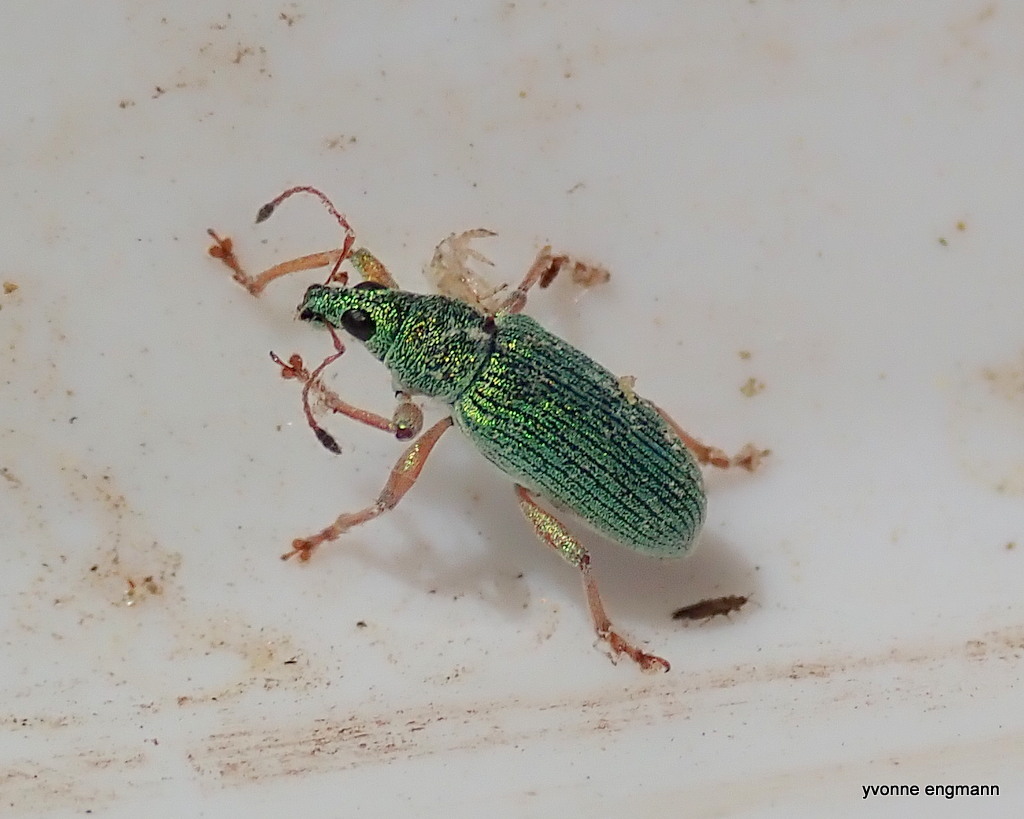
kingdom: Animalia
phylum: Arthropoda
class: Insecta
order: Coleoptera
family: Curculionidae
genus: Polydrusus
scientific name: Polydrusus formosus
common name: Weevil
